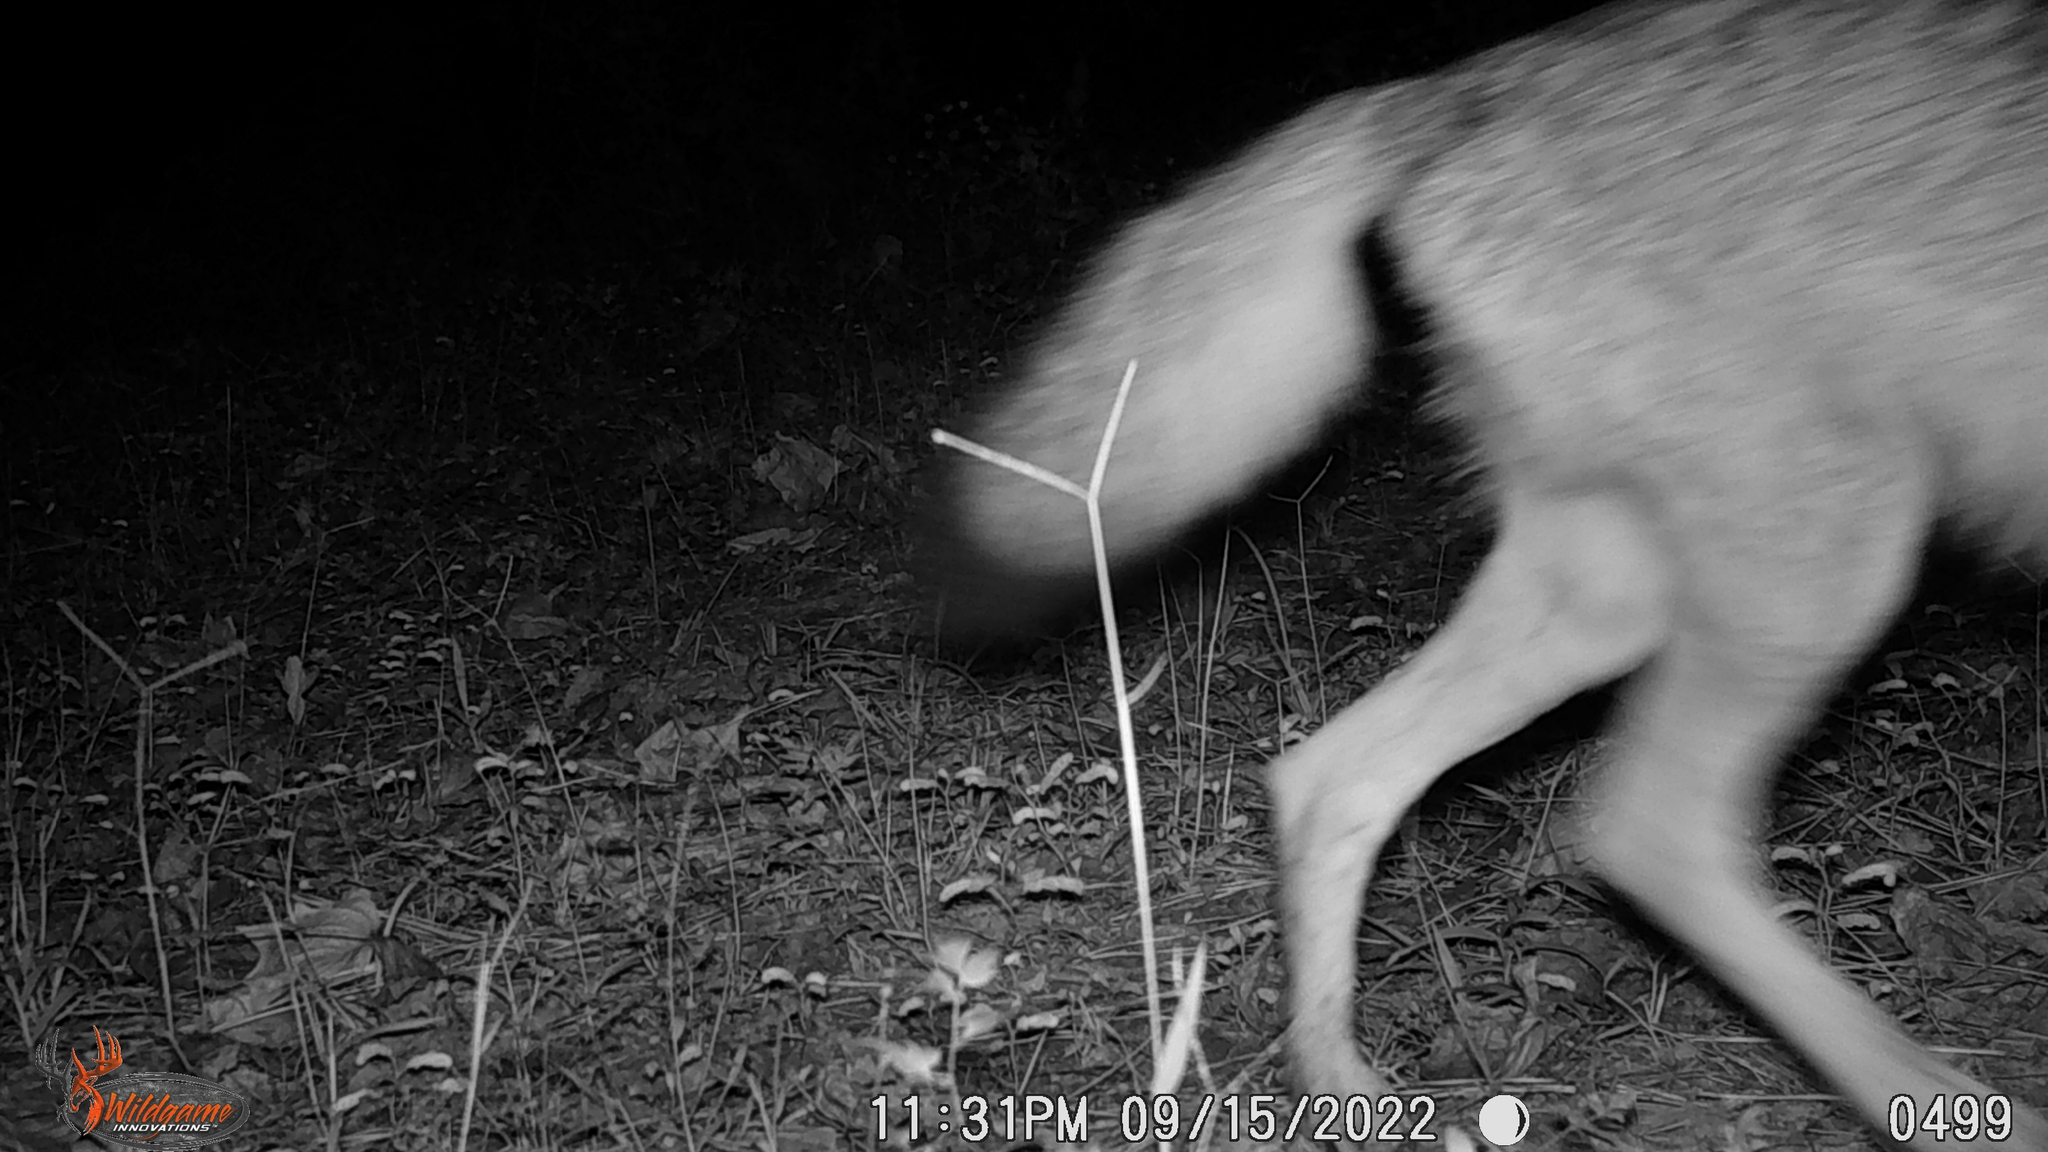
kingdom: Animalia
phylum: Chordata
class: Mammalia
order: Carnivora
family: Canidae
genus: Canis
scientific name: Canis latrans
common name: Coyote
